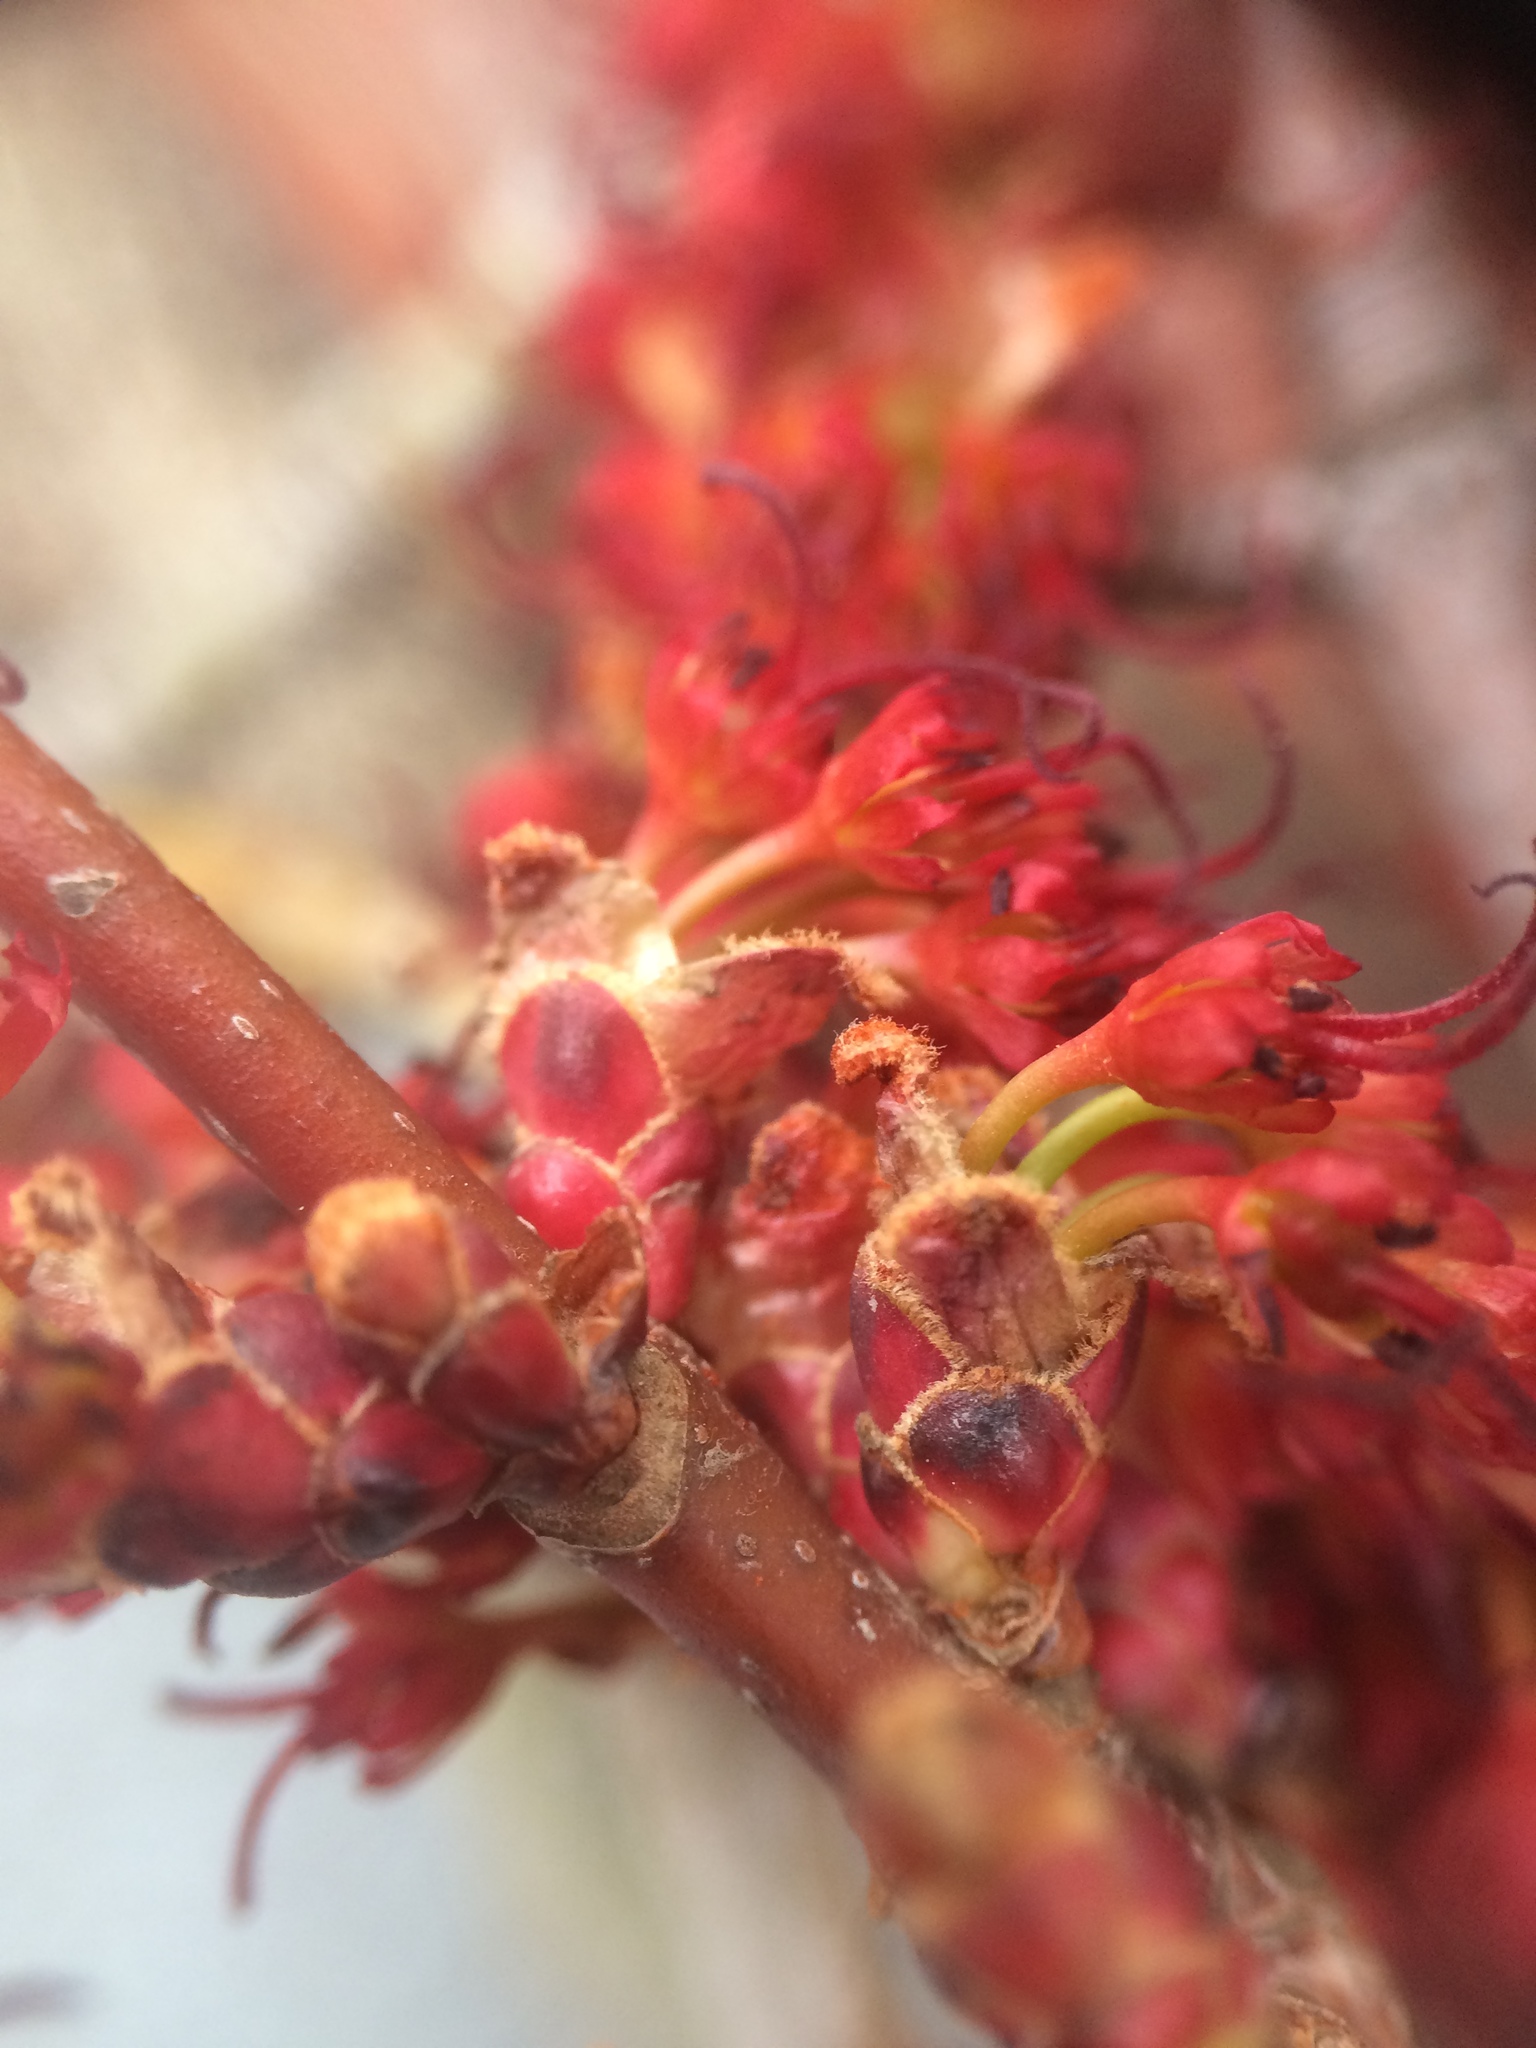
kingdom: Plantae
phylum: Tracheophyta
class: Magnoliopsida
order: Sapindales
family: Sapindaceae
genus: Acer
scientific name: Acer rubrum
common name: Red maple
